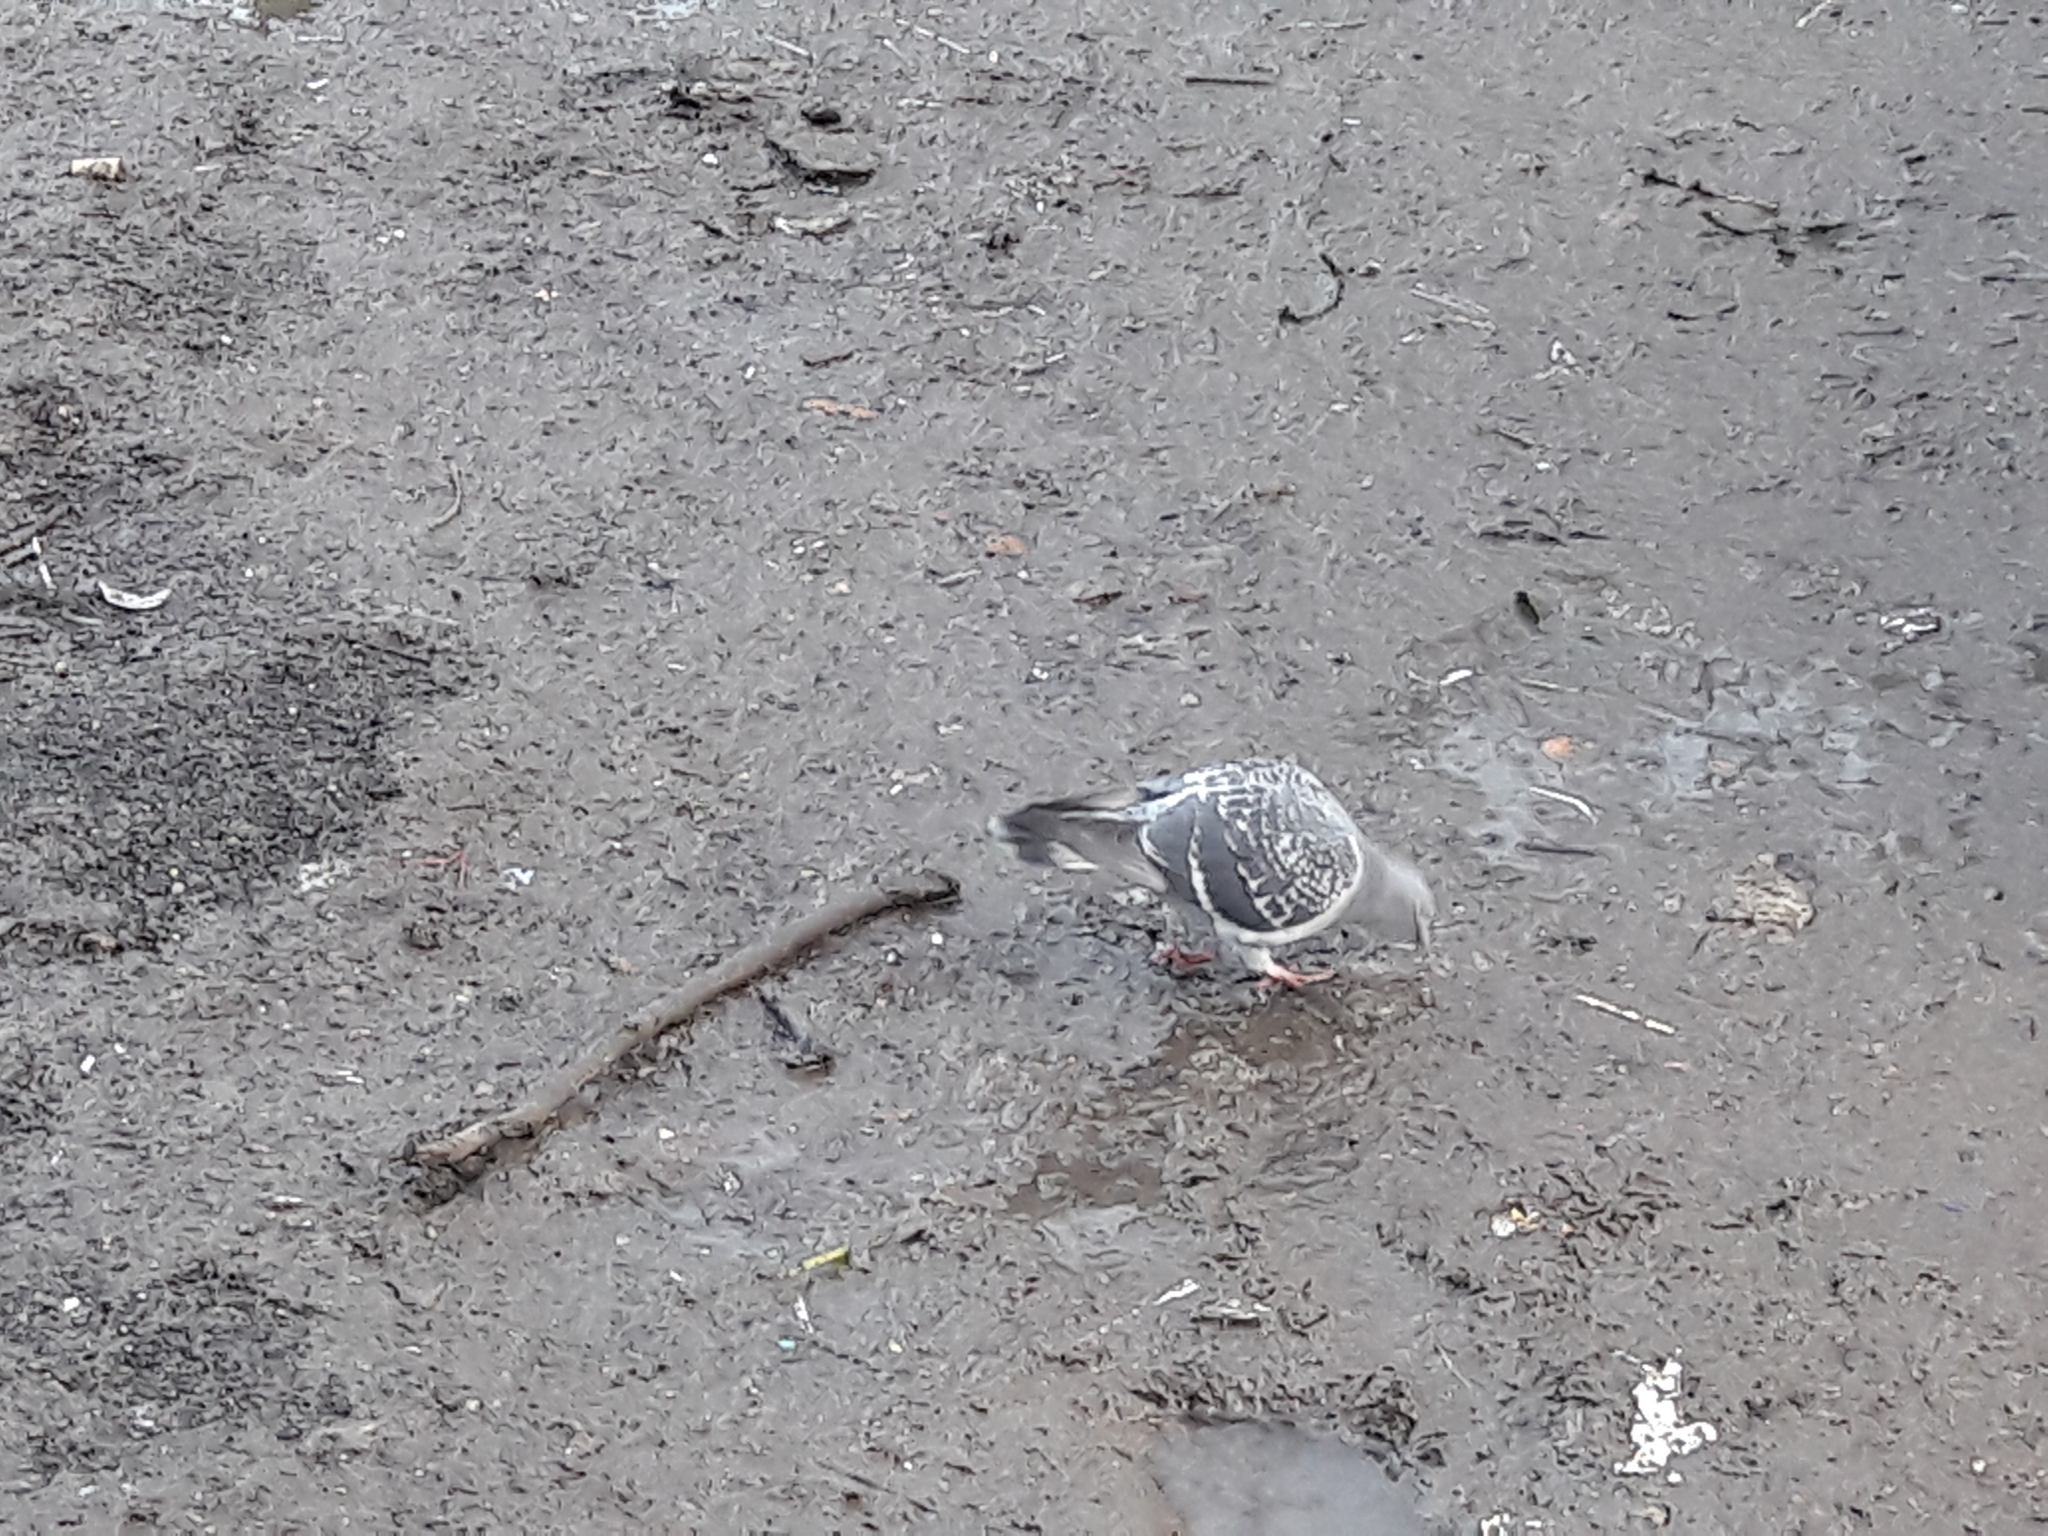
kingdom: Animalia
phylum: Chordata
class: Aves
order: Columbiformes
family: Columbidae
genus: Columba
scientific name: Columba livia
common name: Rock pigeon
